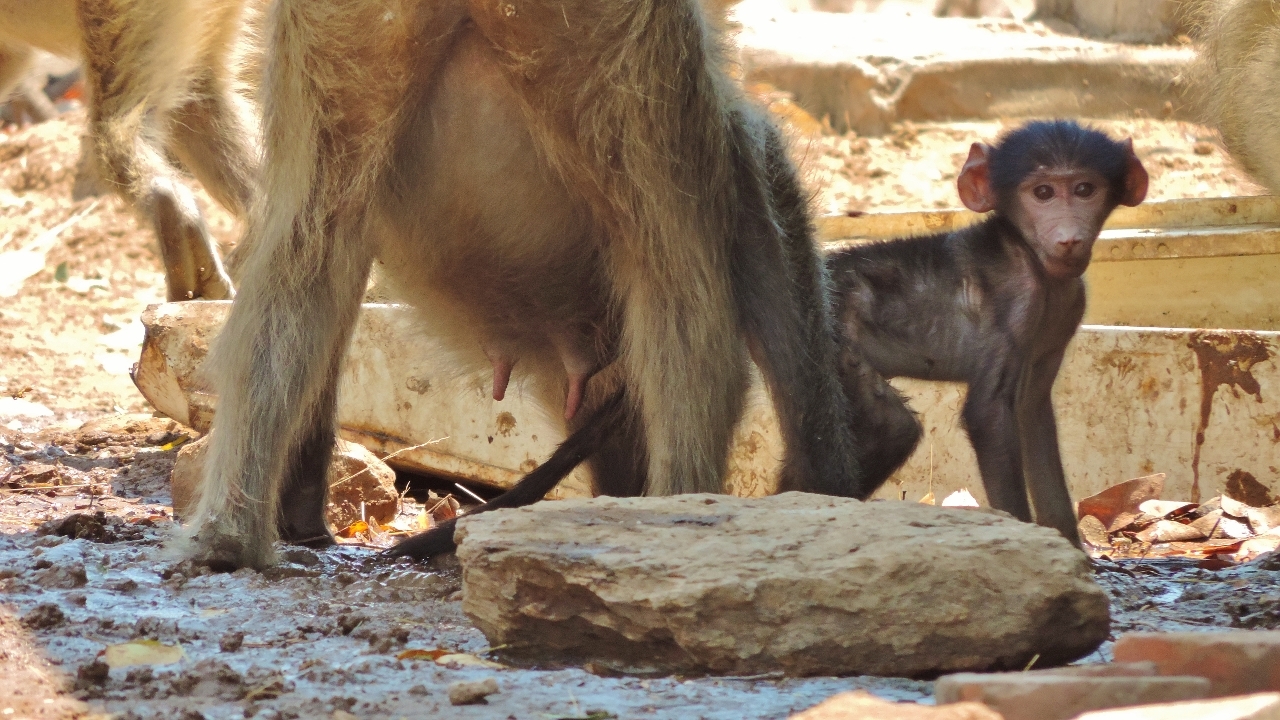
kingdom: Animalia
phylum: Chordata
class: Mammalia
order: Primates
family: Cercopithecidae
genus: Papio
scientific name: Papio ursinus
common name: Chacma baboon
